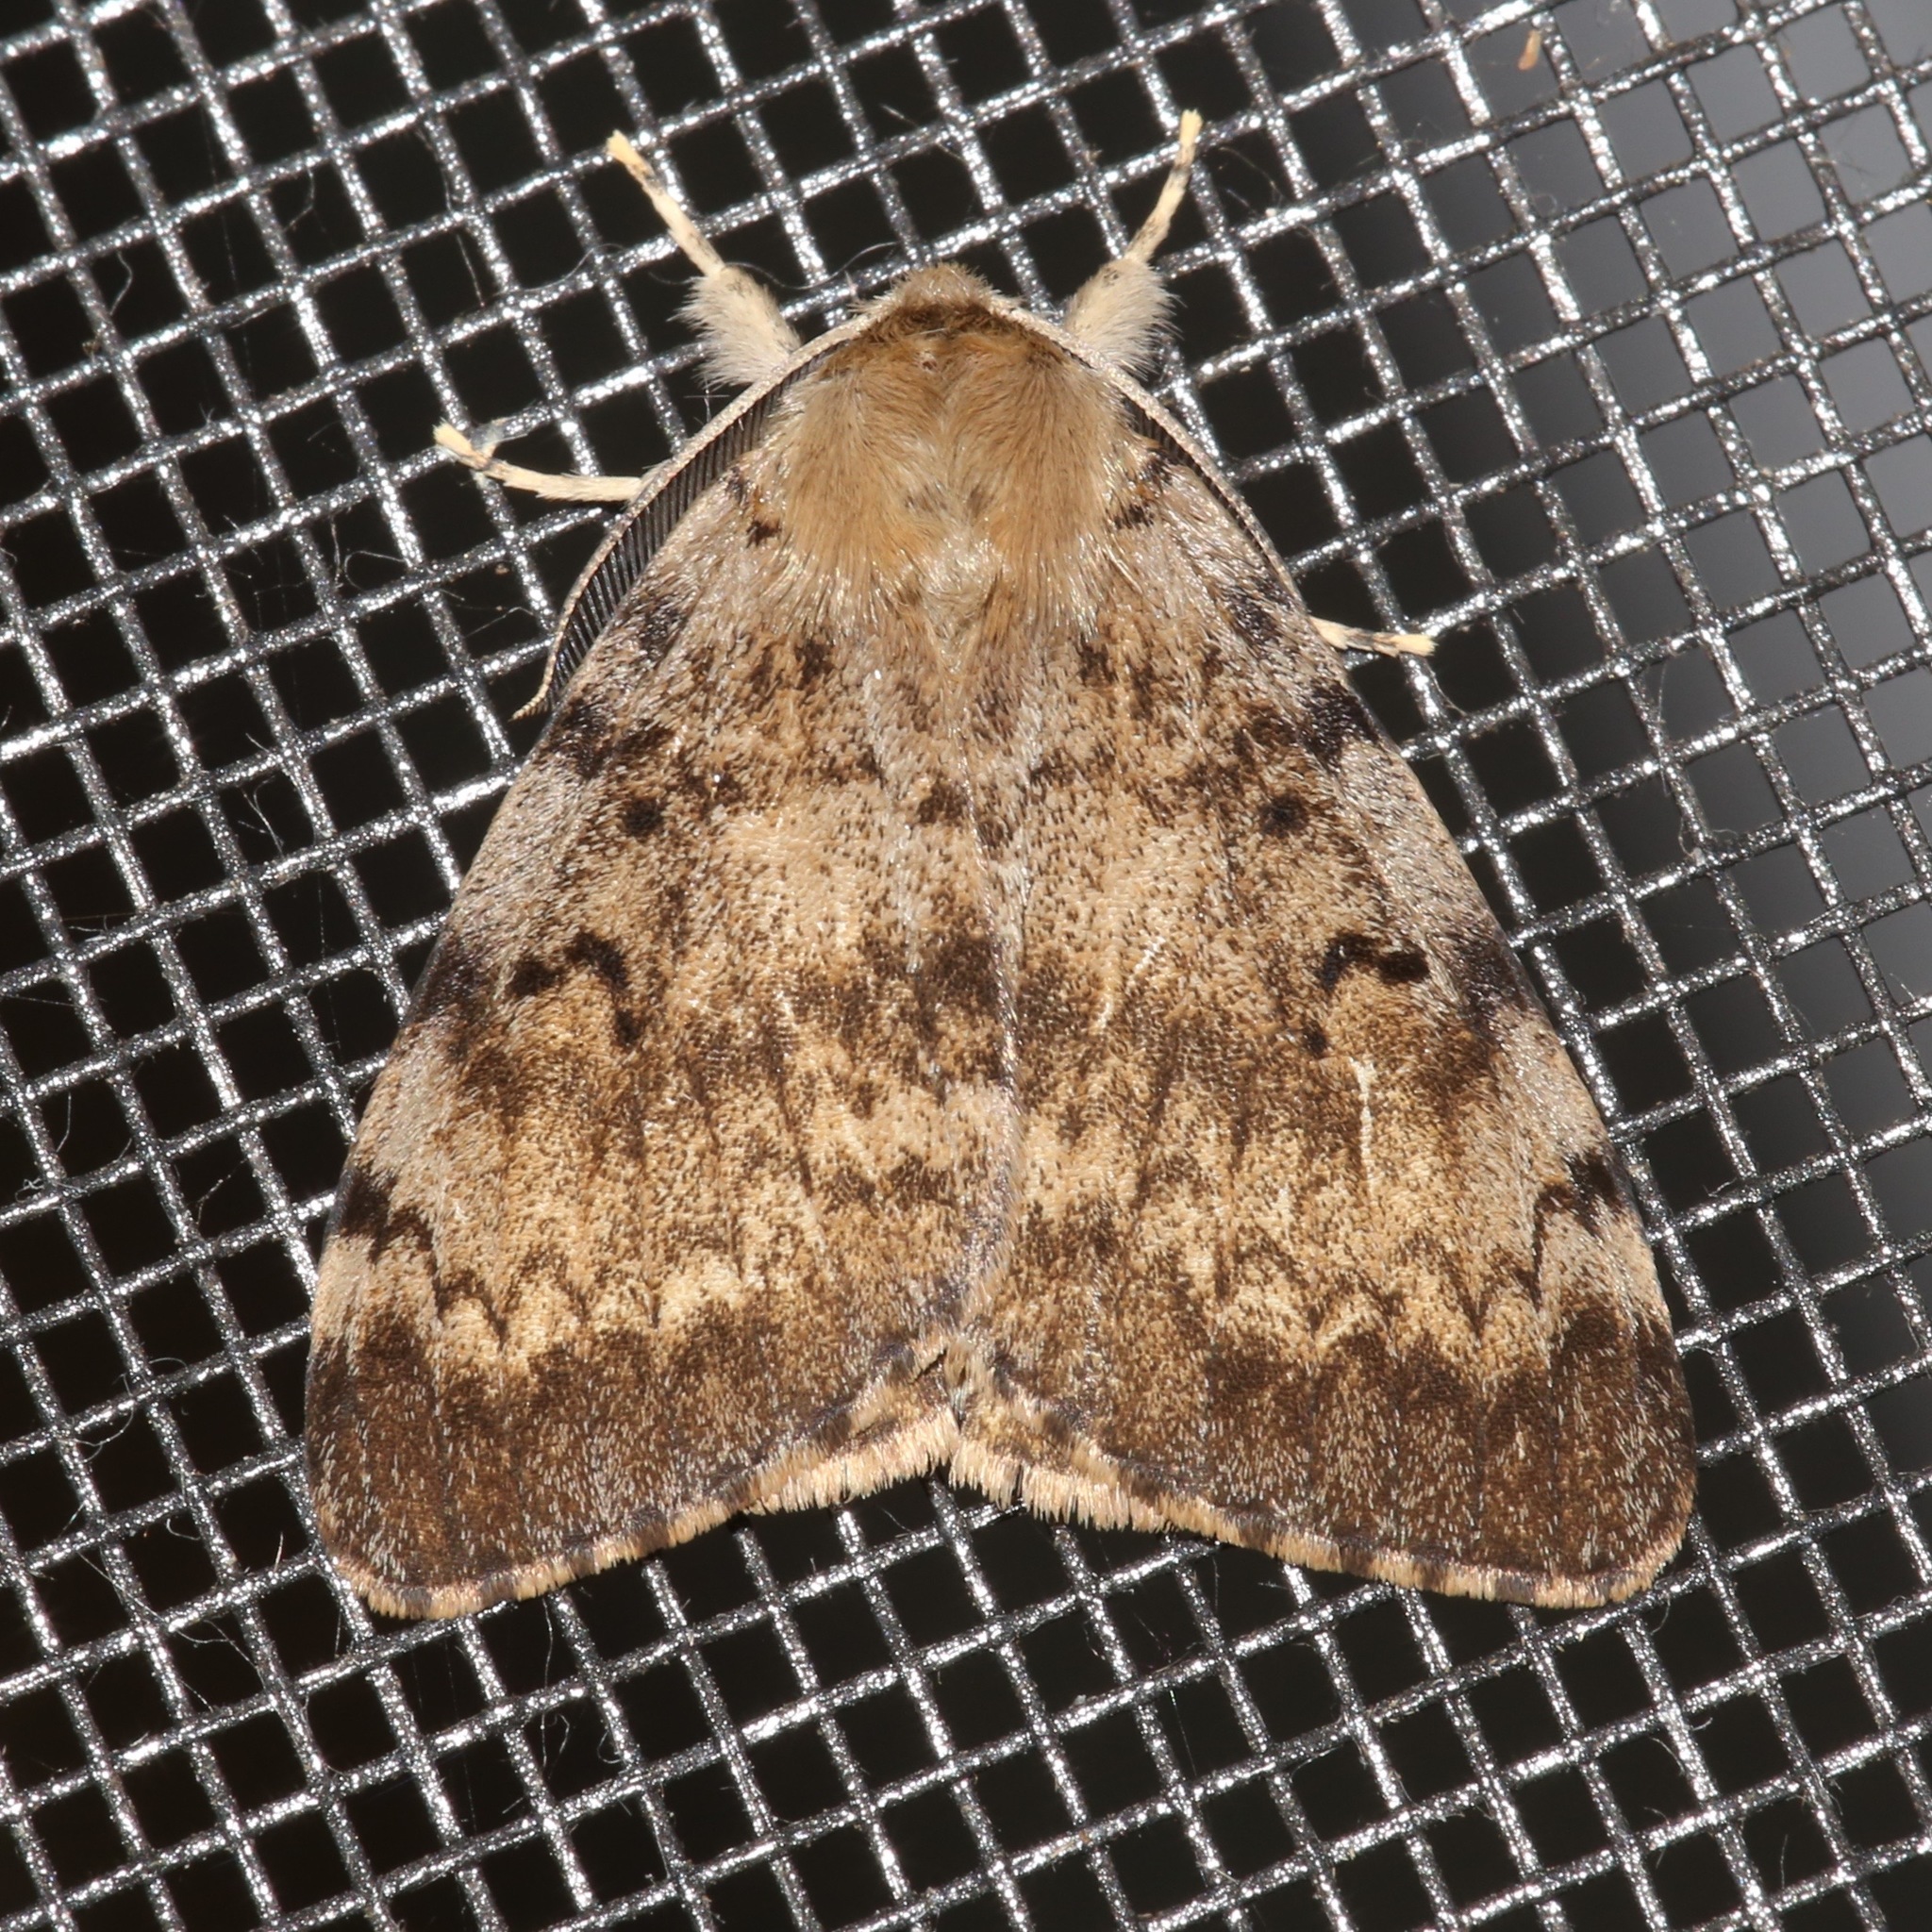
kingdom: Animalia
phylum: Arthropoda
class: Insecta
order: Lepidoptera
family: Erebidae
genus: Lymantria
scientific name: Lymantria dispar
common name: Gypsy moth
